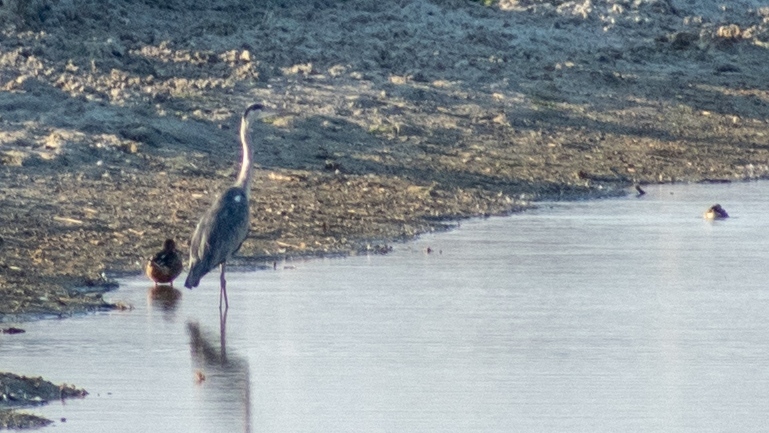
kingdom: Animalia
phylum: Chordata
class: Aves
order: Pelecaniformes
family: Ardeidae
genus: Ardea
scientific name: Ardea cinerea
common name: Grey heron
